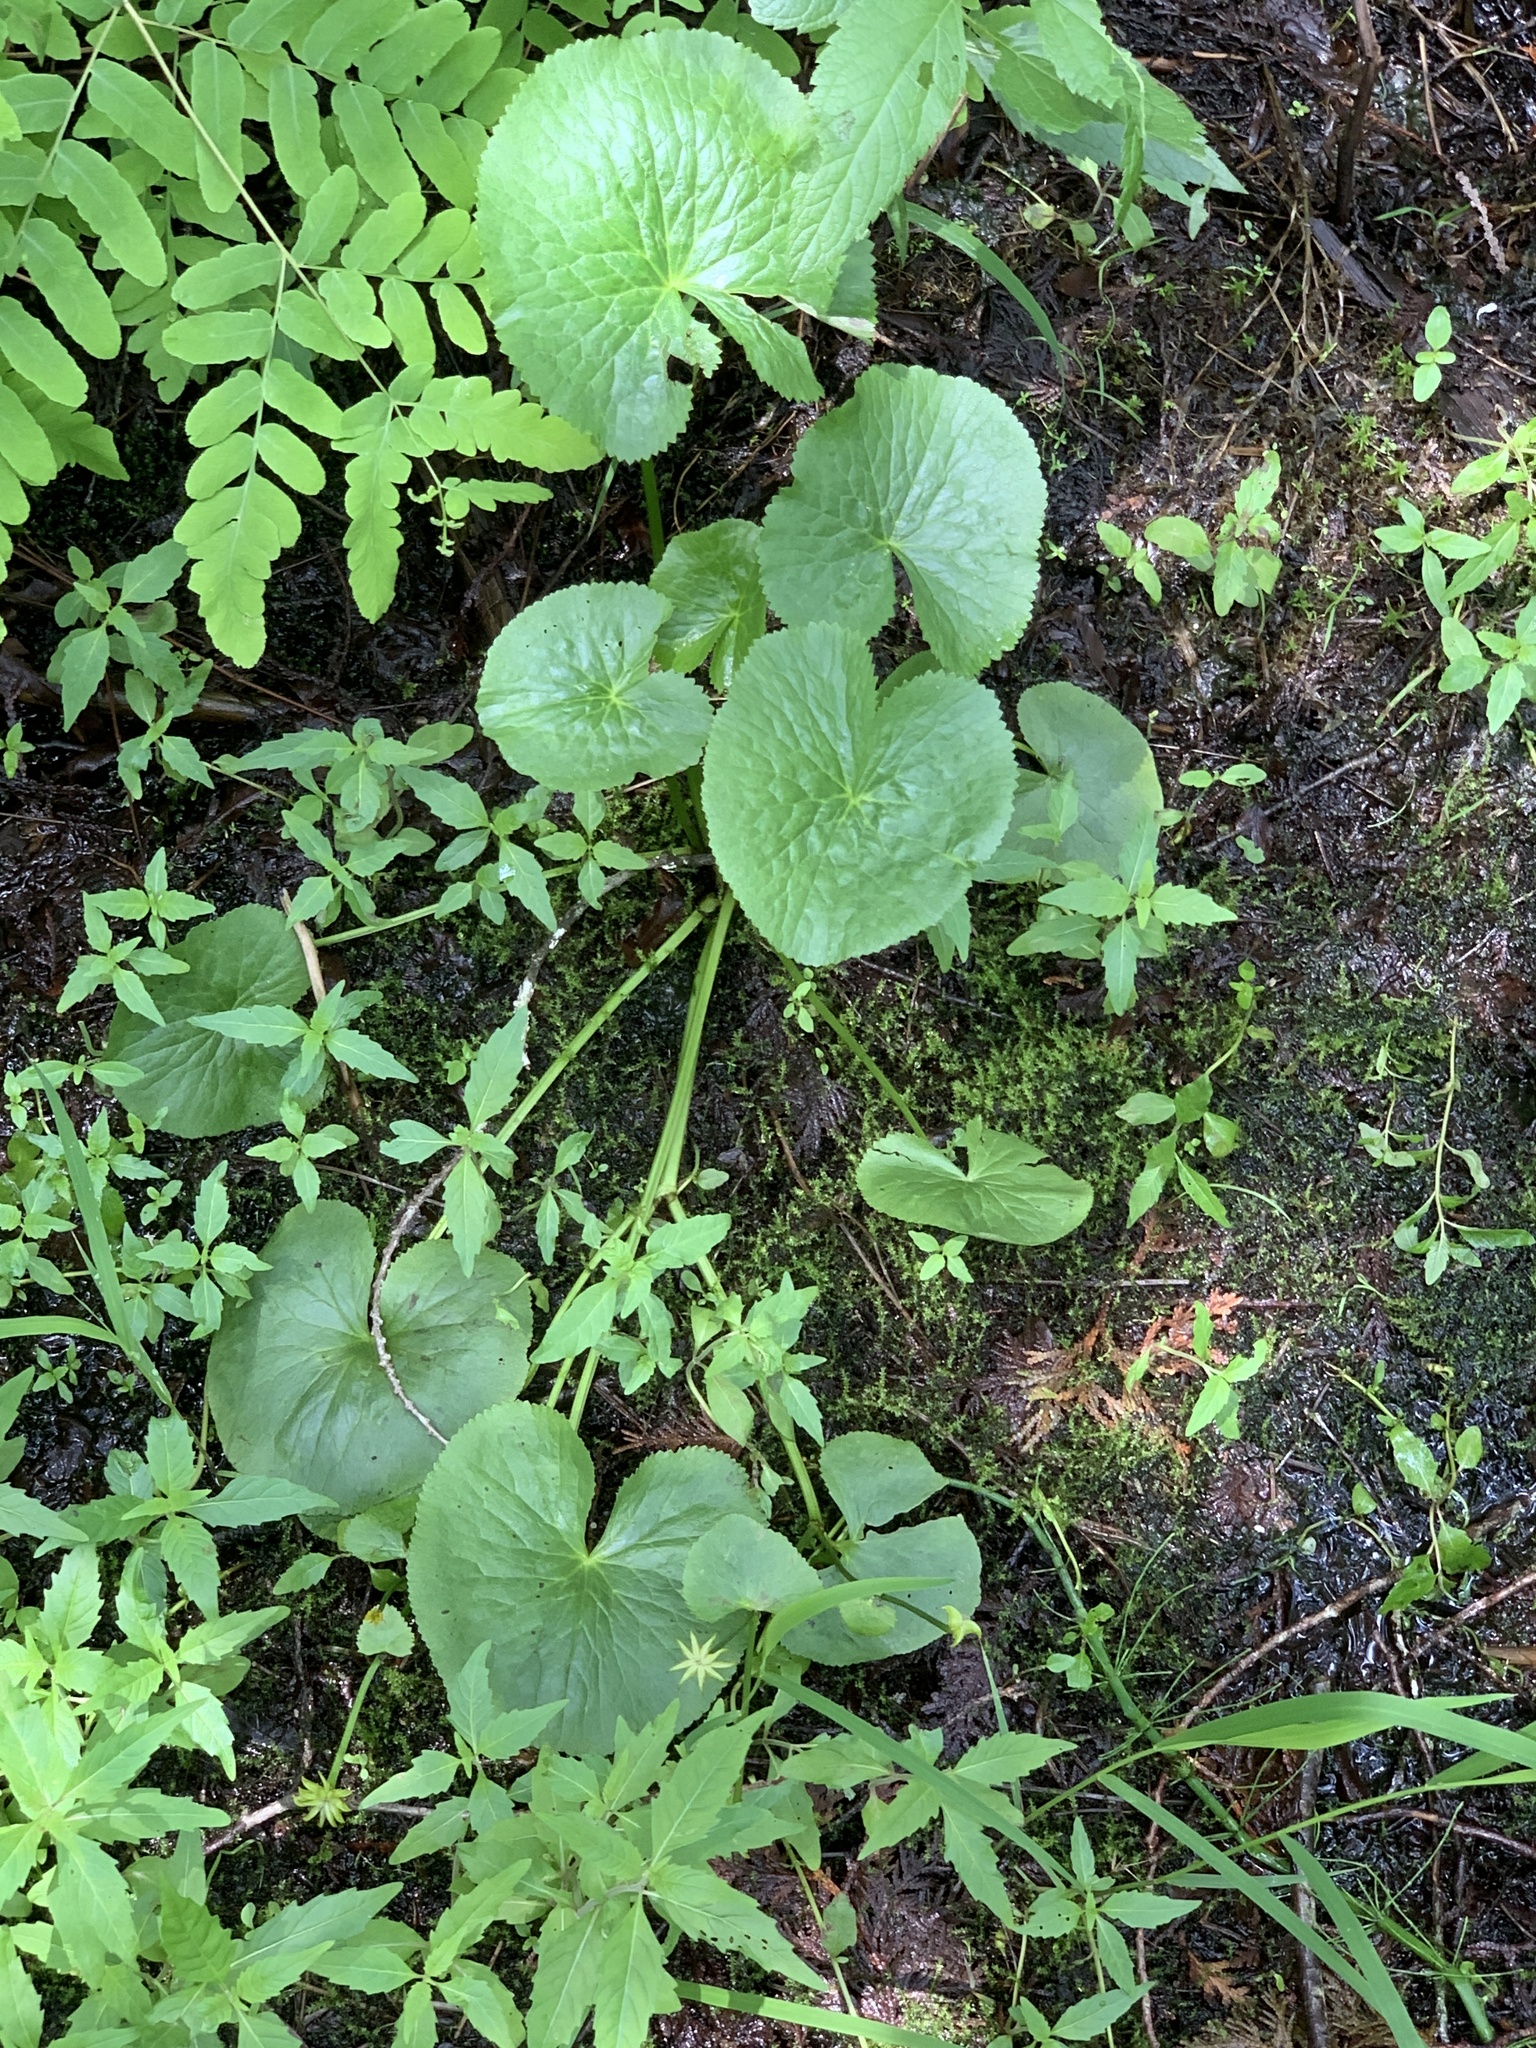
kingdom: Plantae
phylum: Tracheophyta
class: Magnoliopsida
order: Ranunculales
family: Ranunculaceae
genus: Caltha
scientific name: Caltha palustris
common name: Marsh marigold
